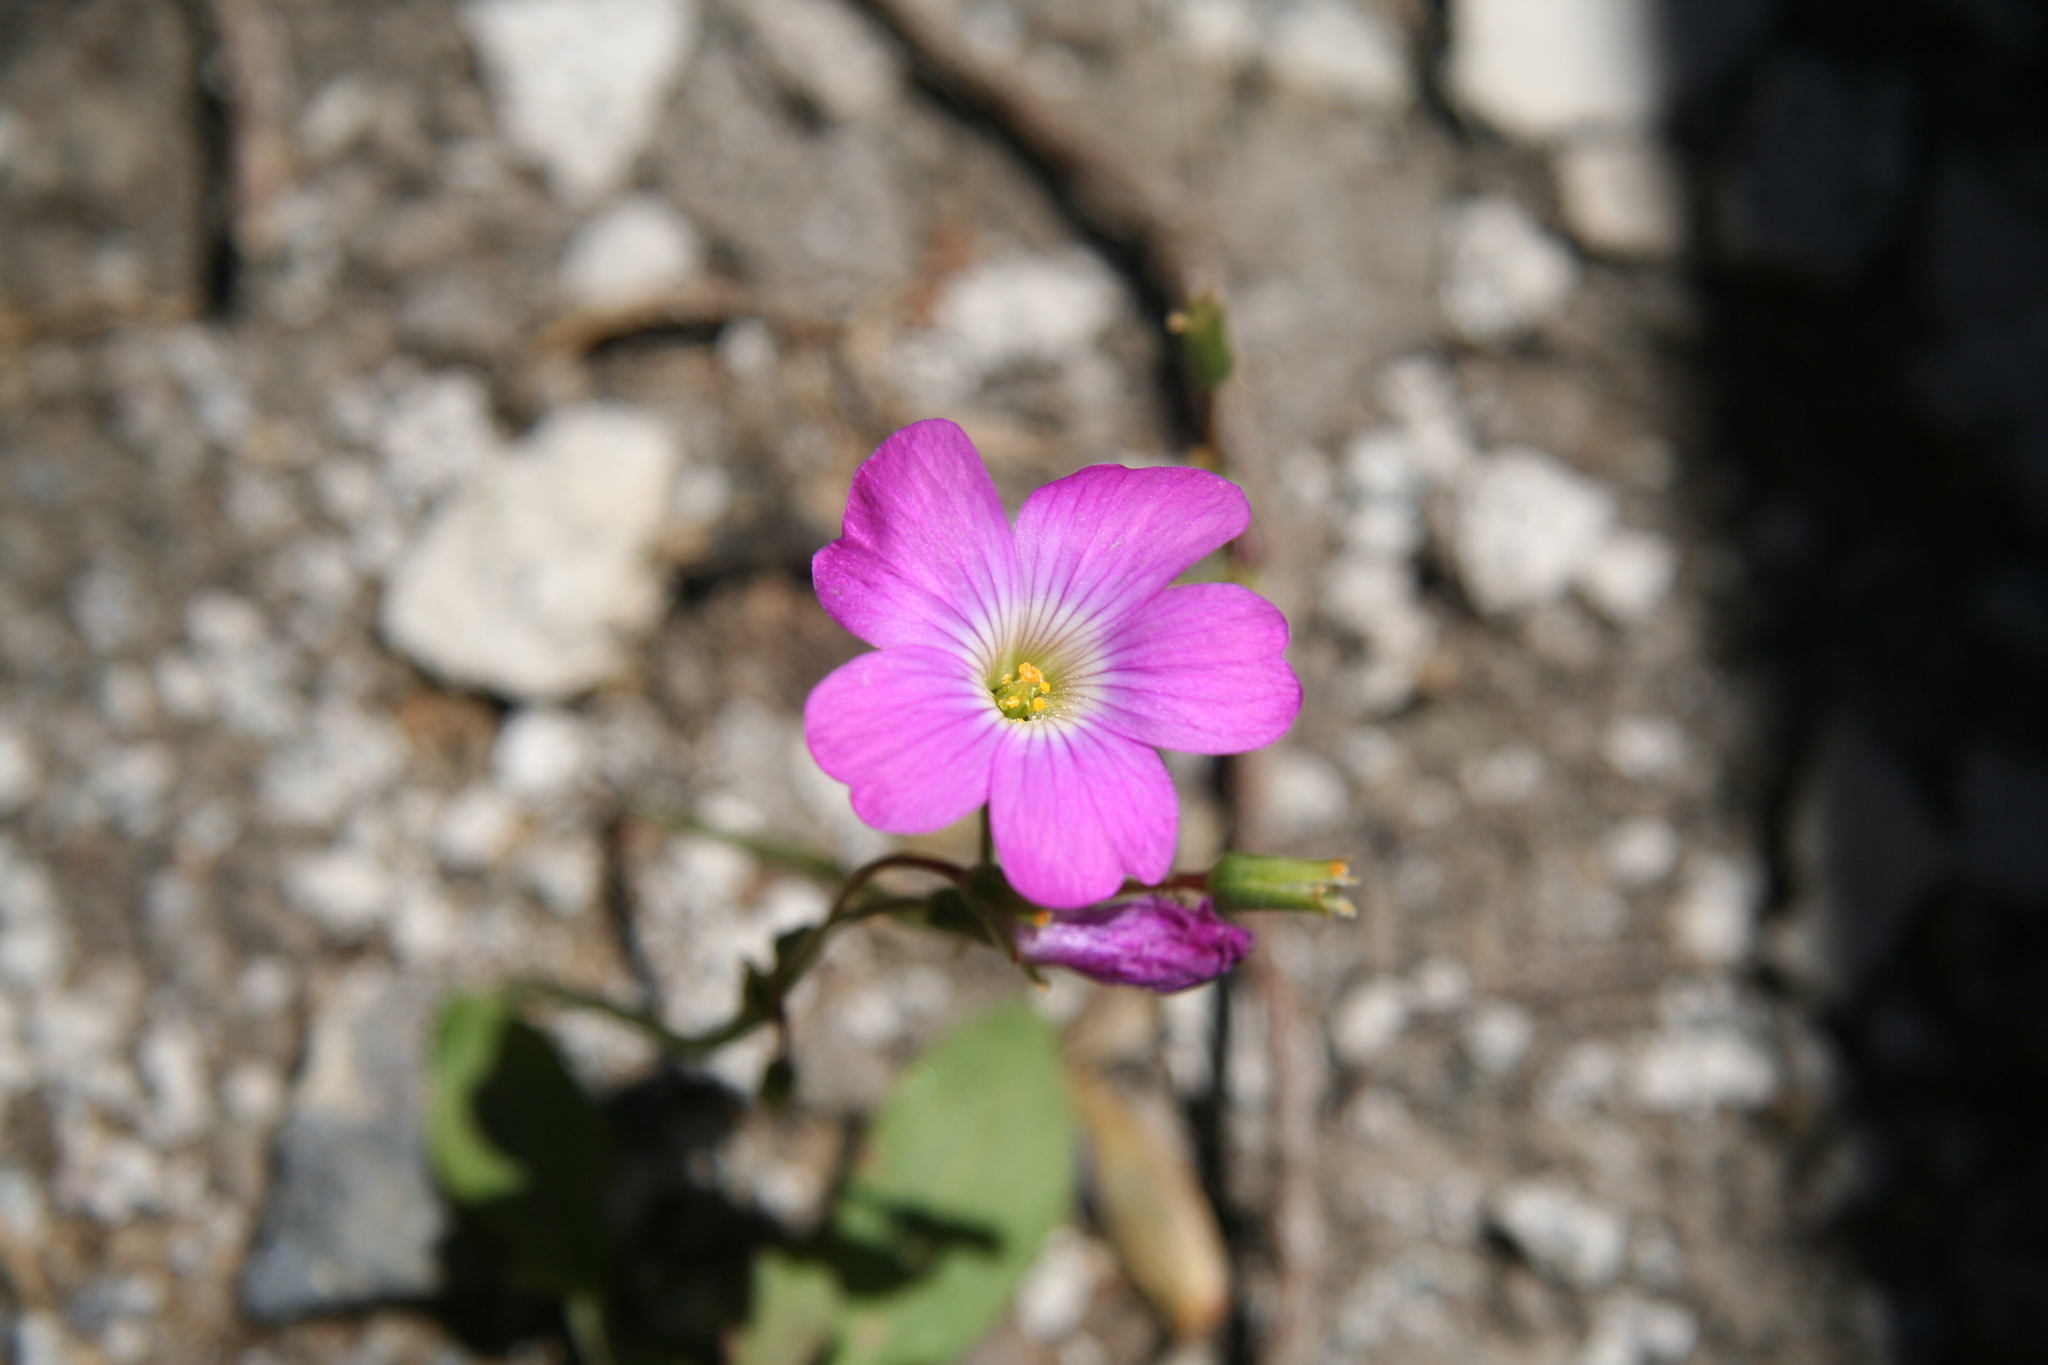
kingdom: Plantae
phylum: Tracheophyta
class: Magnoliopsida
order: Oxalidales
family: Oxalidaceae
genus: Oxalis
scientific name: Oxalis arenaria
